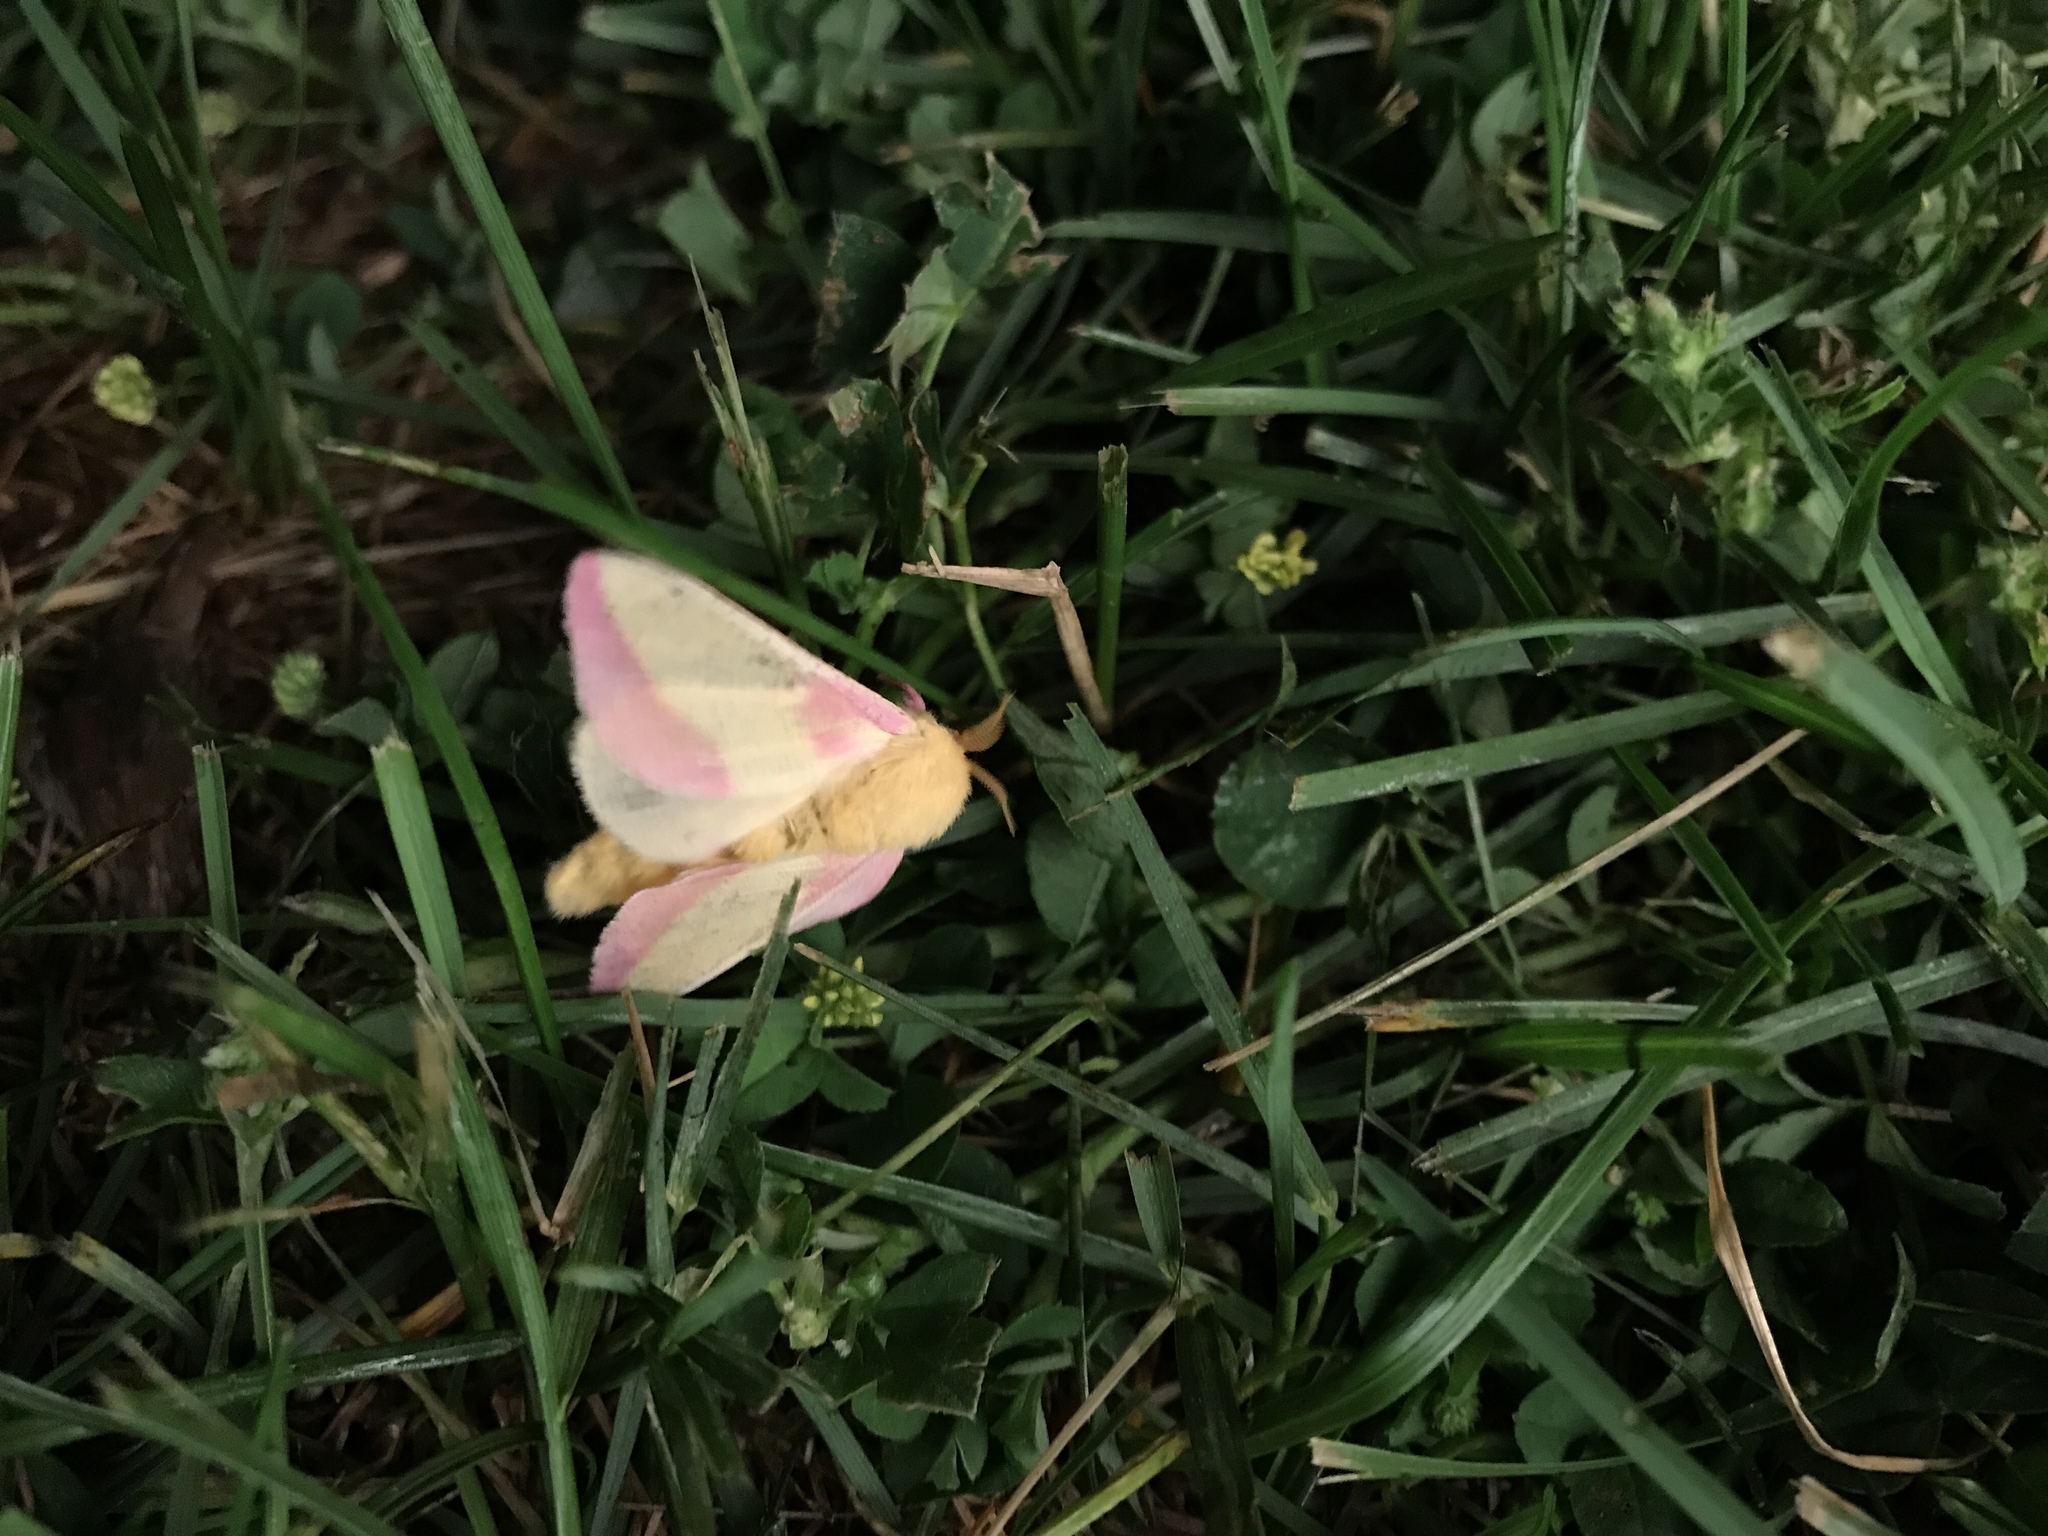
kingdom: Animalia
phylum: Arthropoda
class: Insecta
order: Lepidoptera
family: Saturniidae
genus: Dryocampa
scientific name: Dryocampa rubicunda
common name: Rosy maple moth
